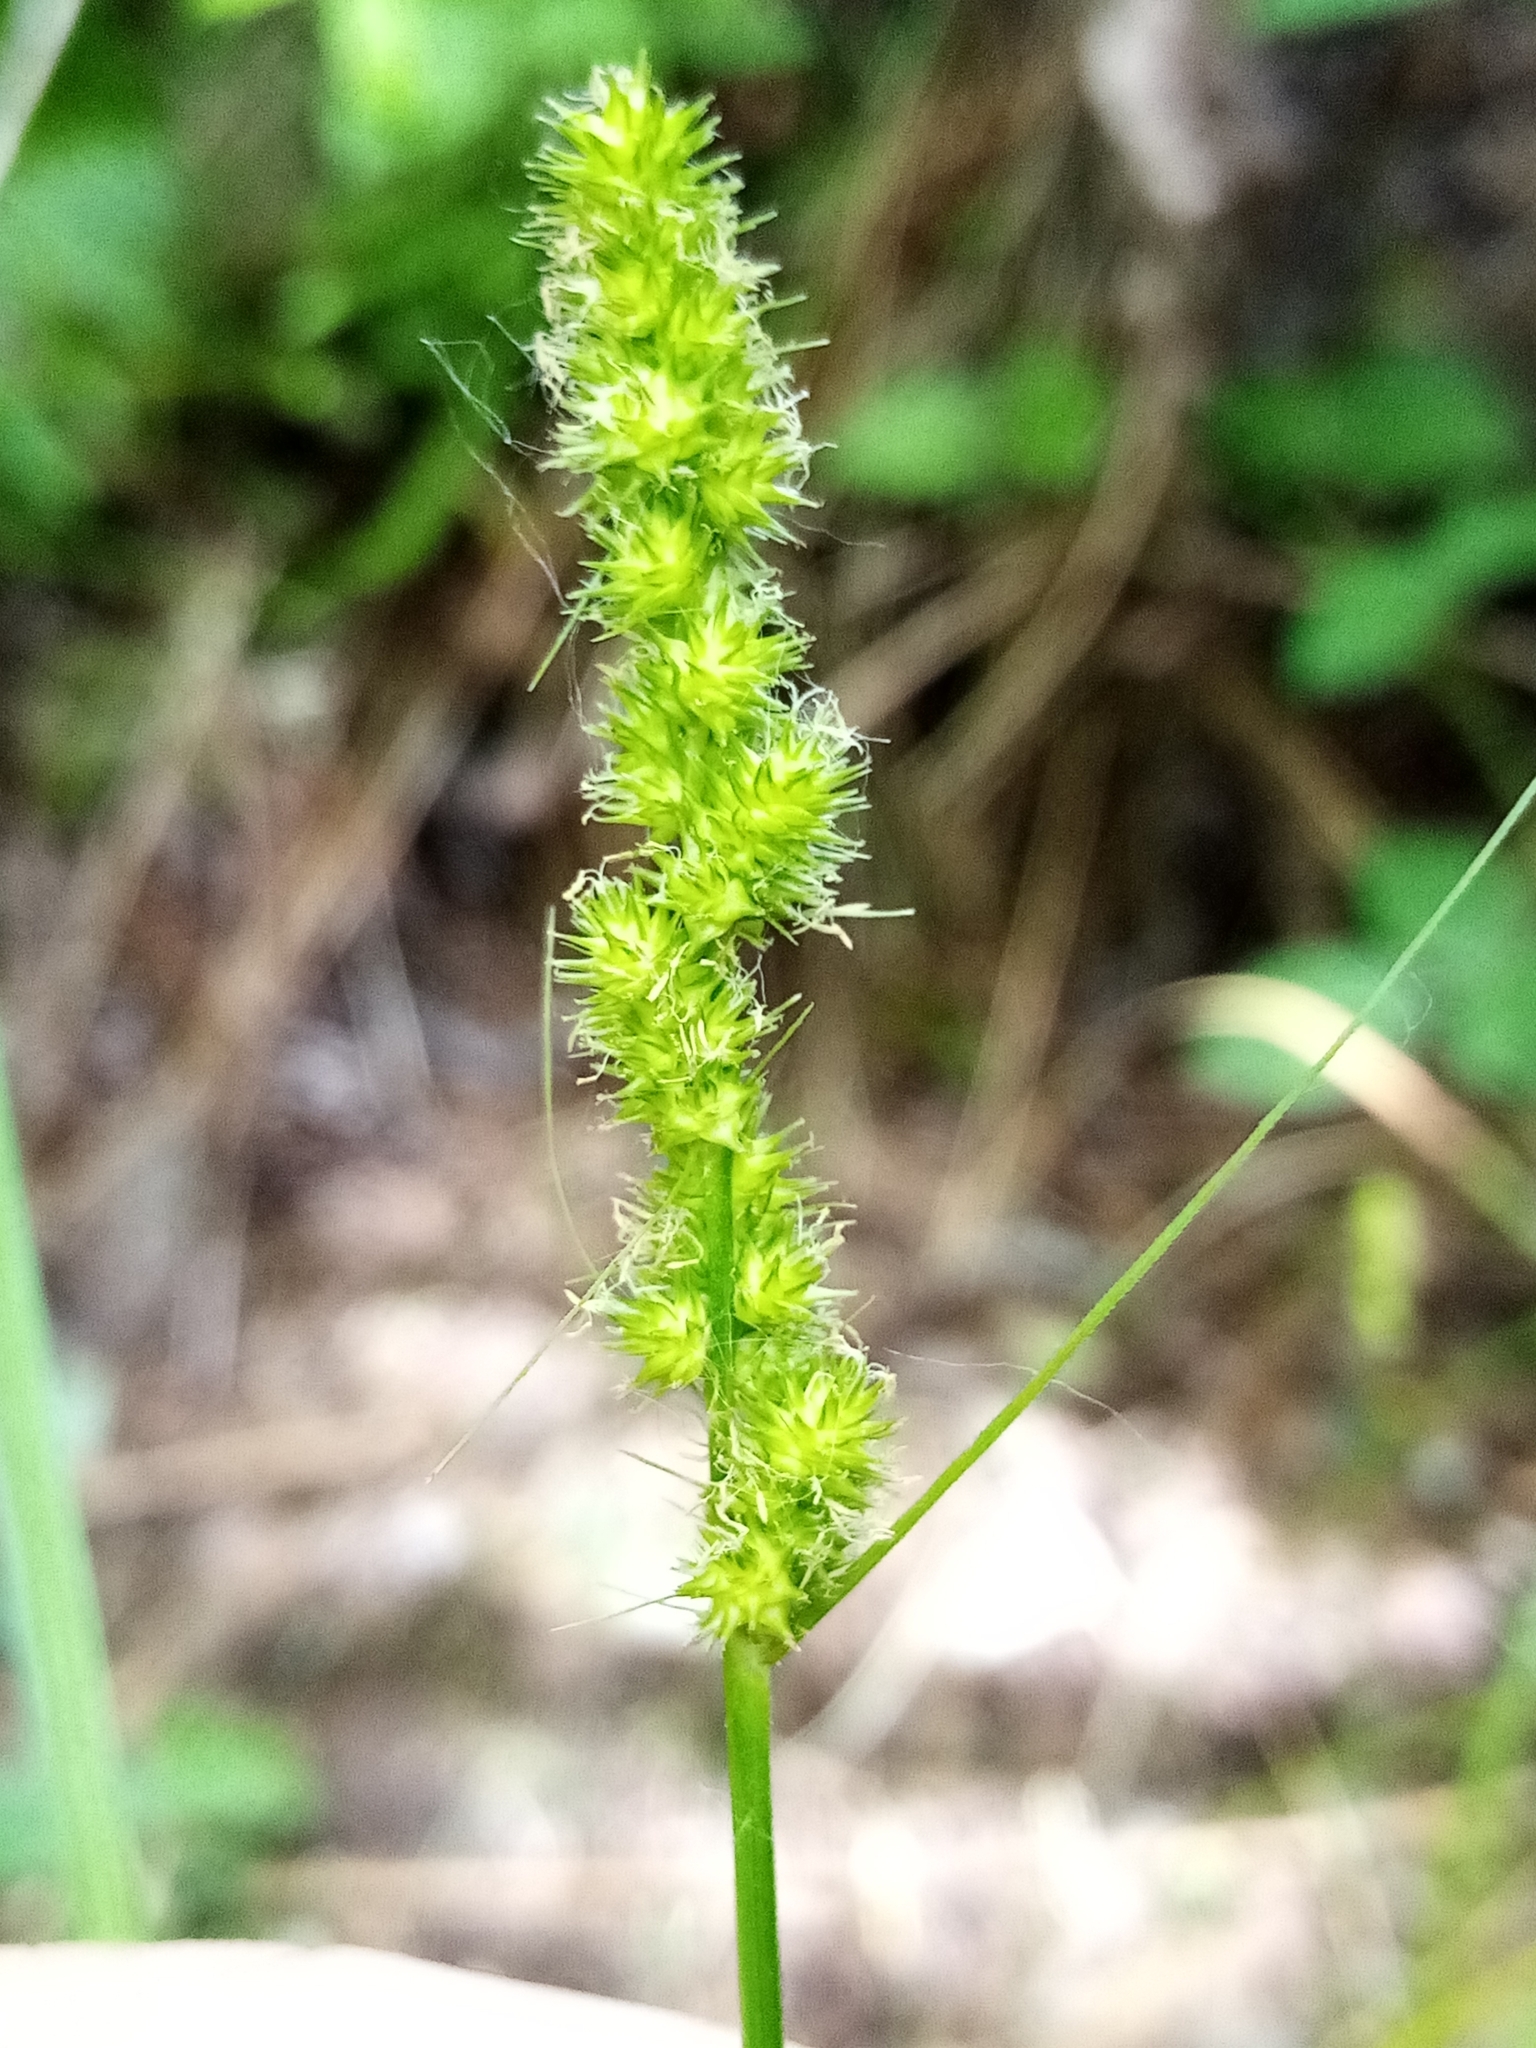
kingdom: Plantae
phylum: Tracheophyta
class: Liliopsida
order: Poales
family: Cyperaceae
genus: Carex
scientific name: Carex vulpinoidea
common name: American fox-sedge
